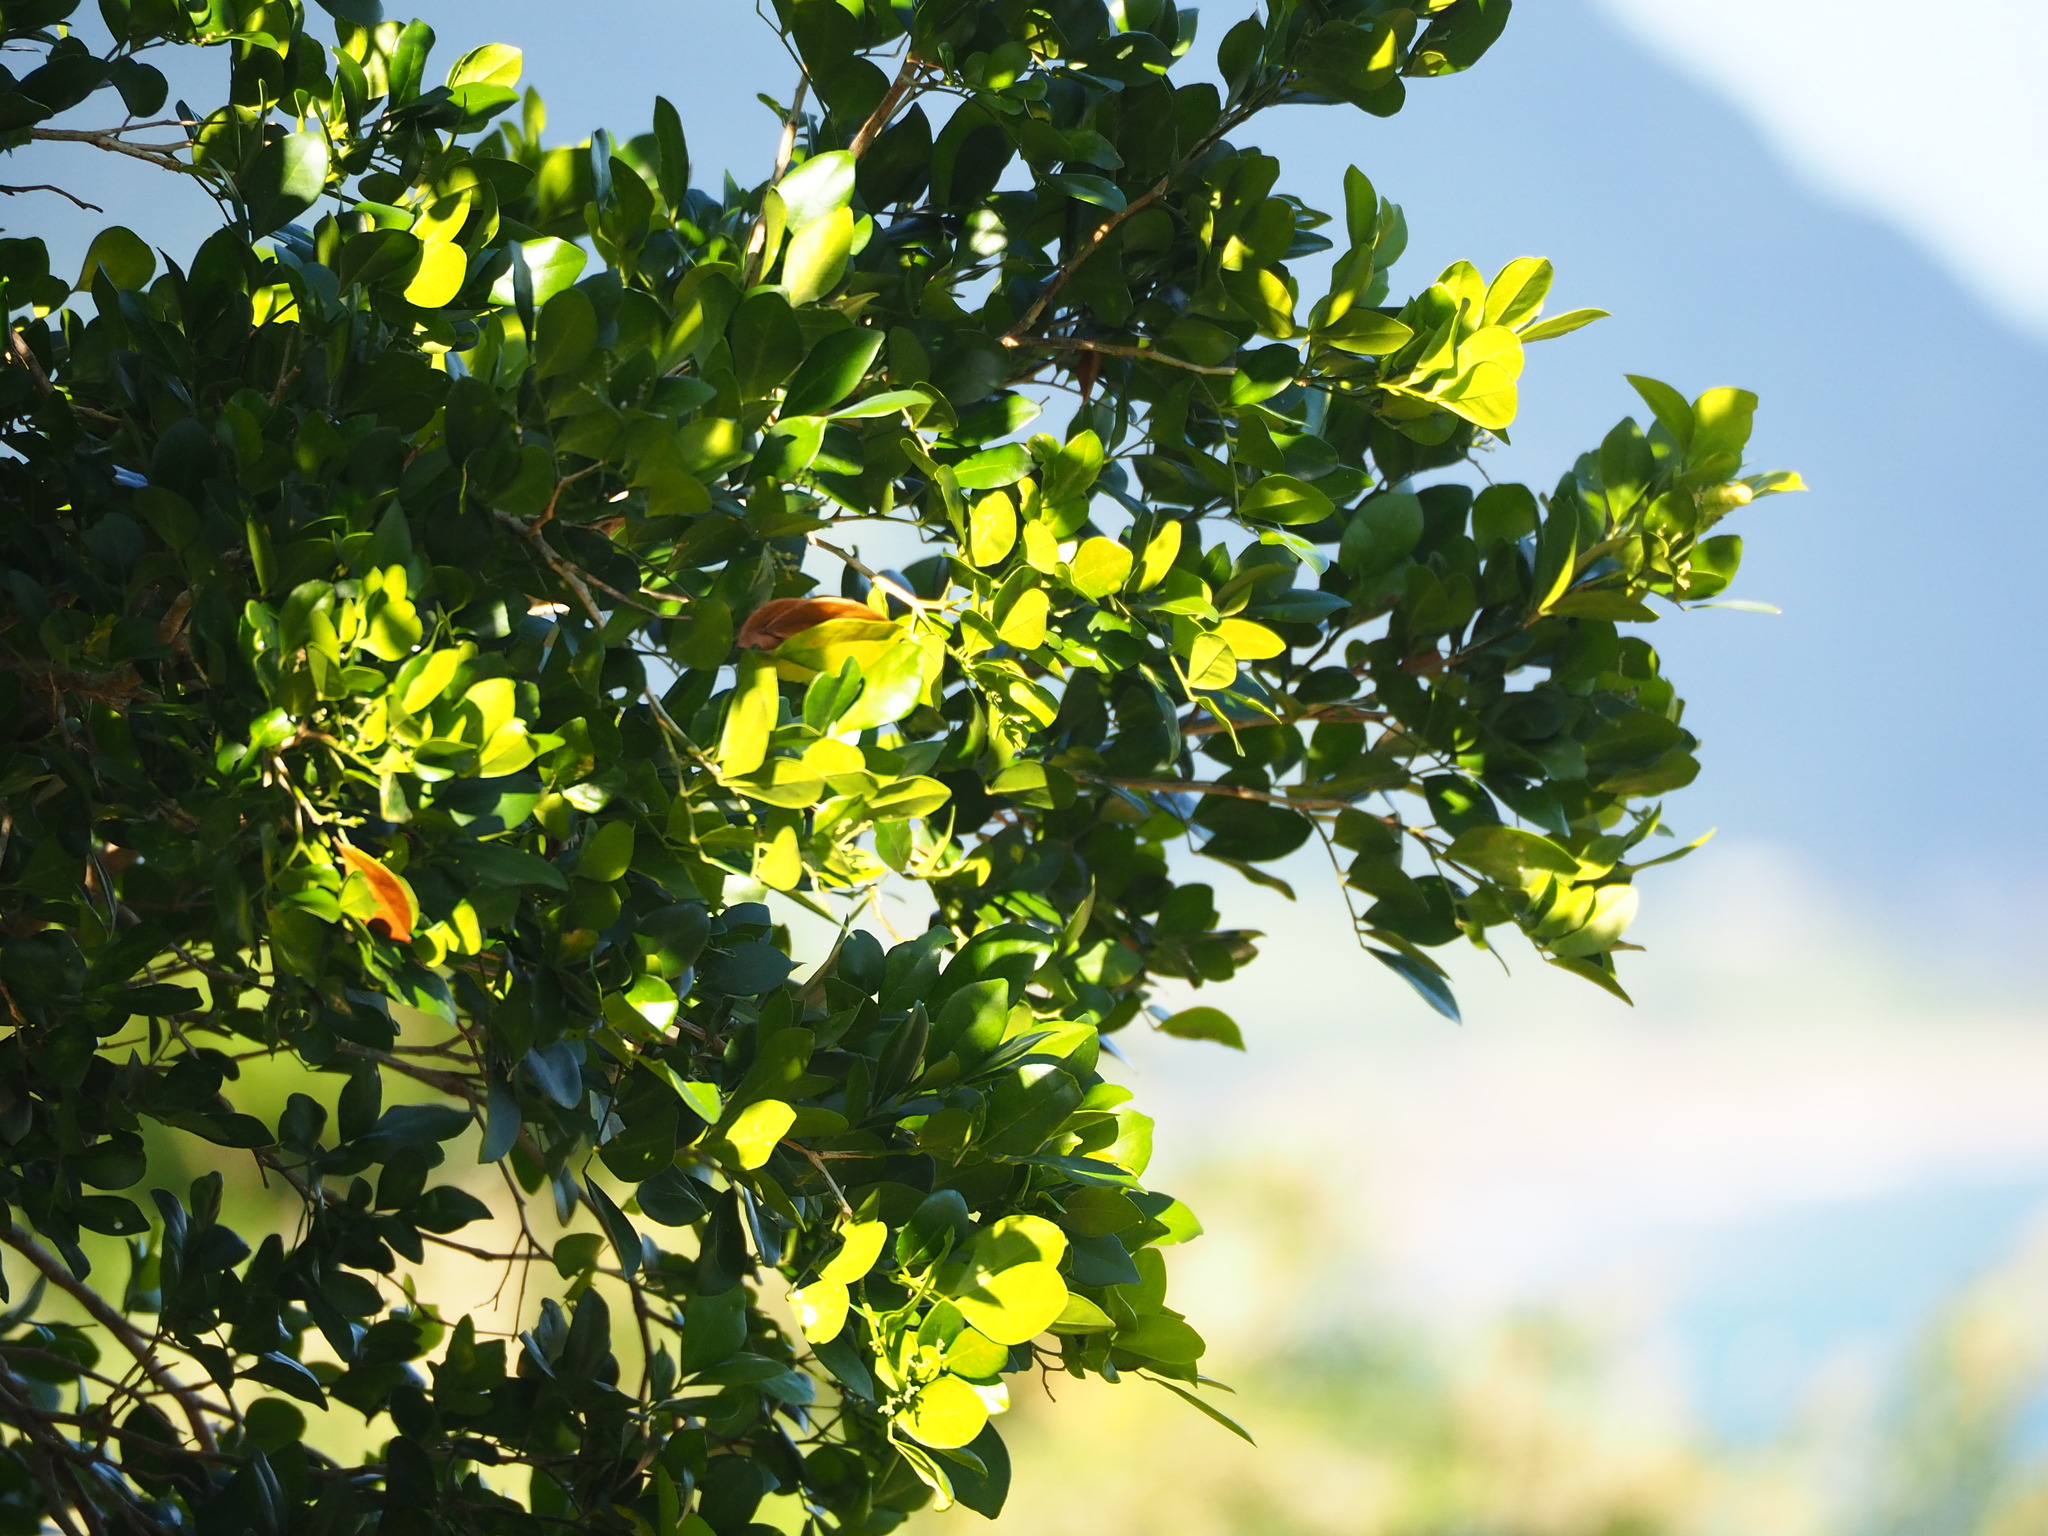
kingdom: Plantae
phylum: Tracheophyta
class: Magnoliopsida
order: Sapindales
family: Rutaceae
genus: Murraya
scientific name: Murraya paniculata
